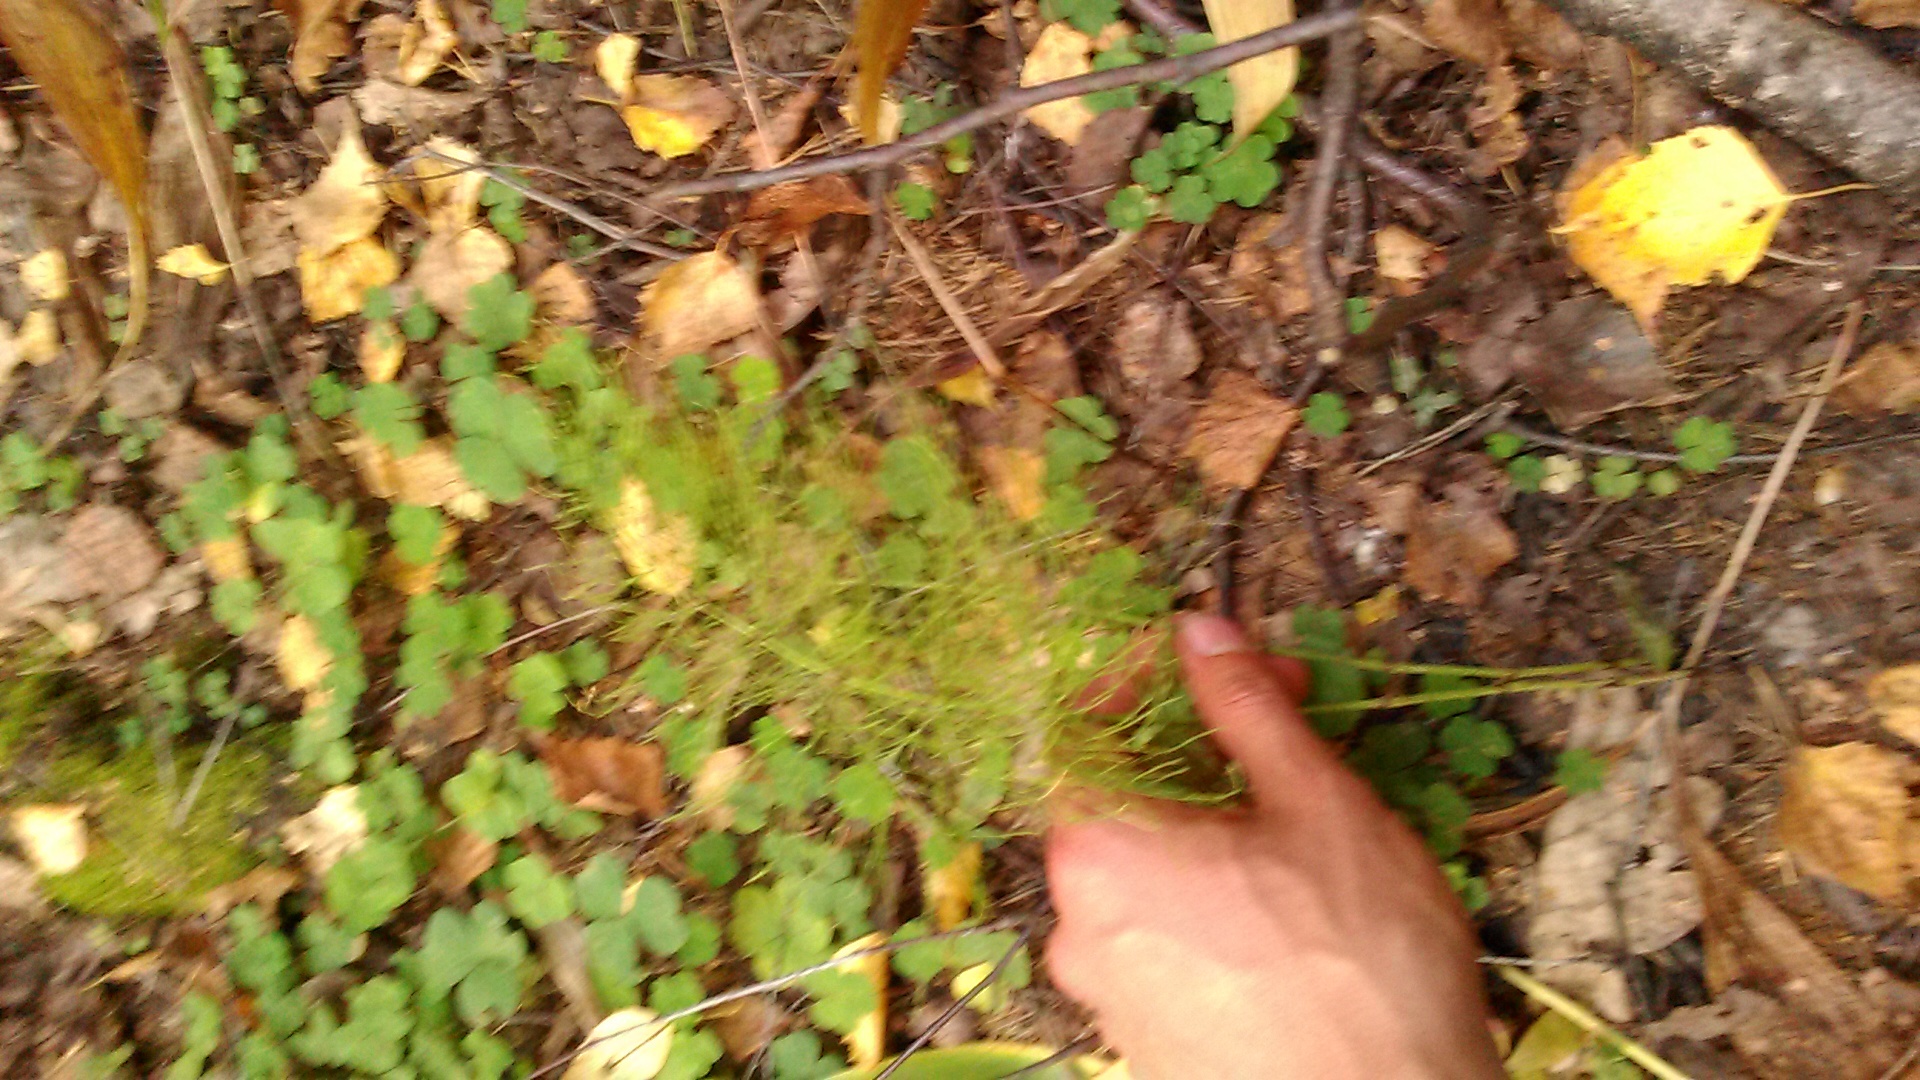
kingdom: Plantae
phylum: Tracheophyta
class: Polypodiopsida
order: Equisetales
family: Equisetaceae
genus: Equisetum
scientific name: Equisetum sylvaticum
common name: Wood horsetail
